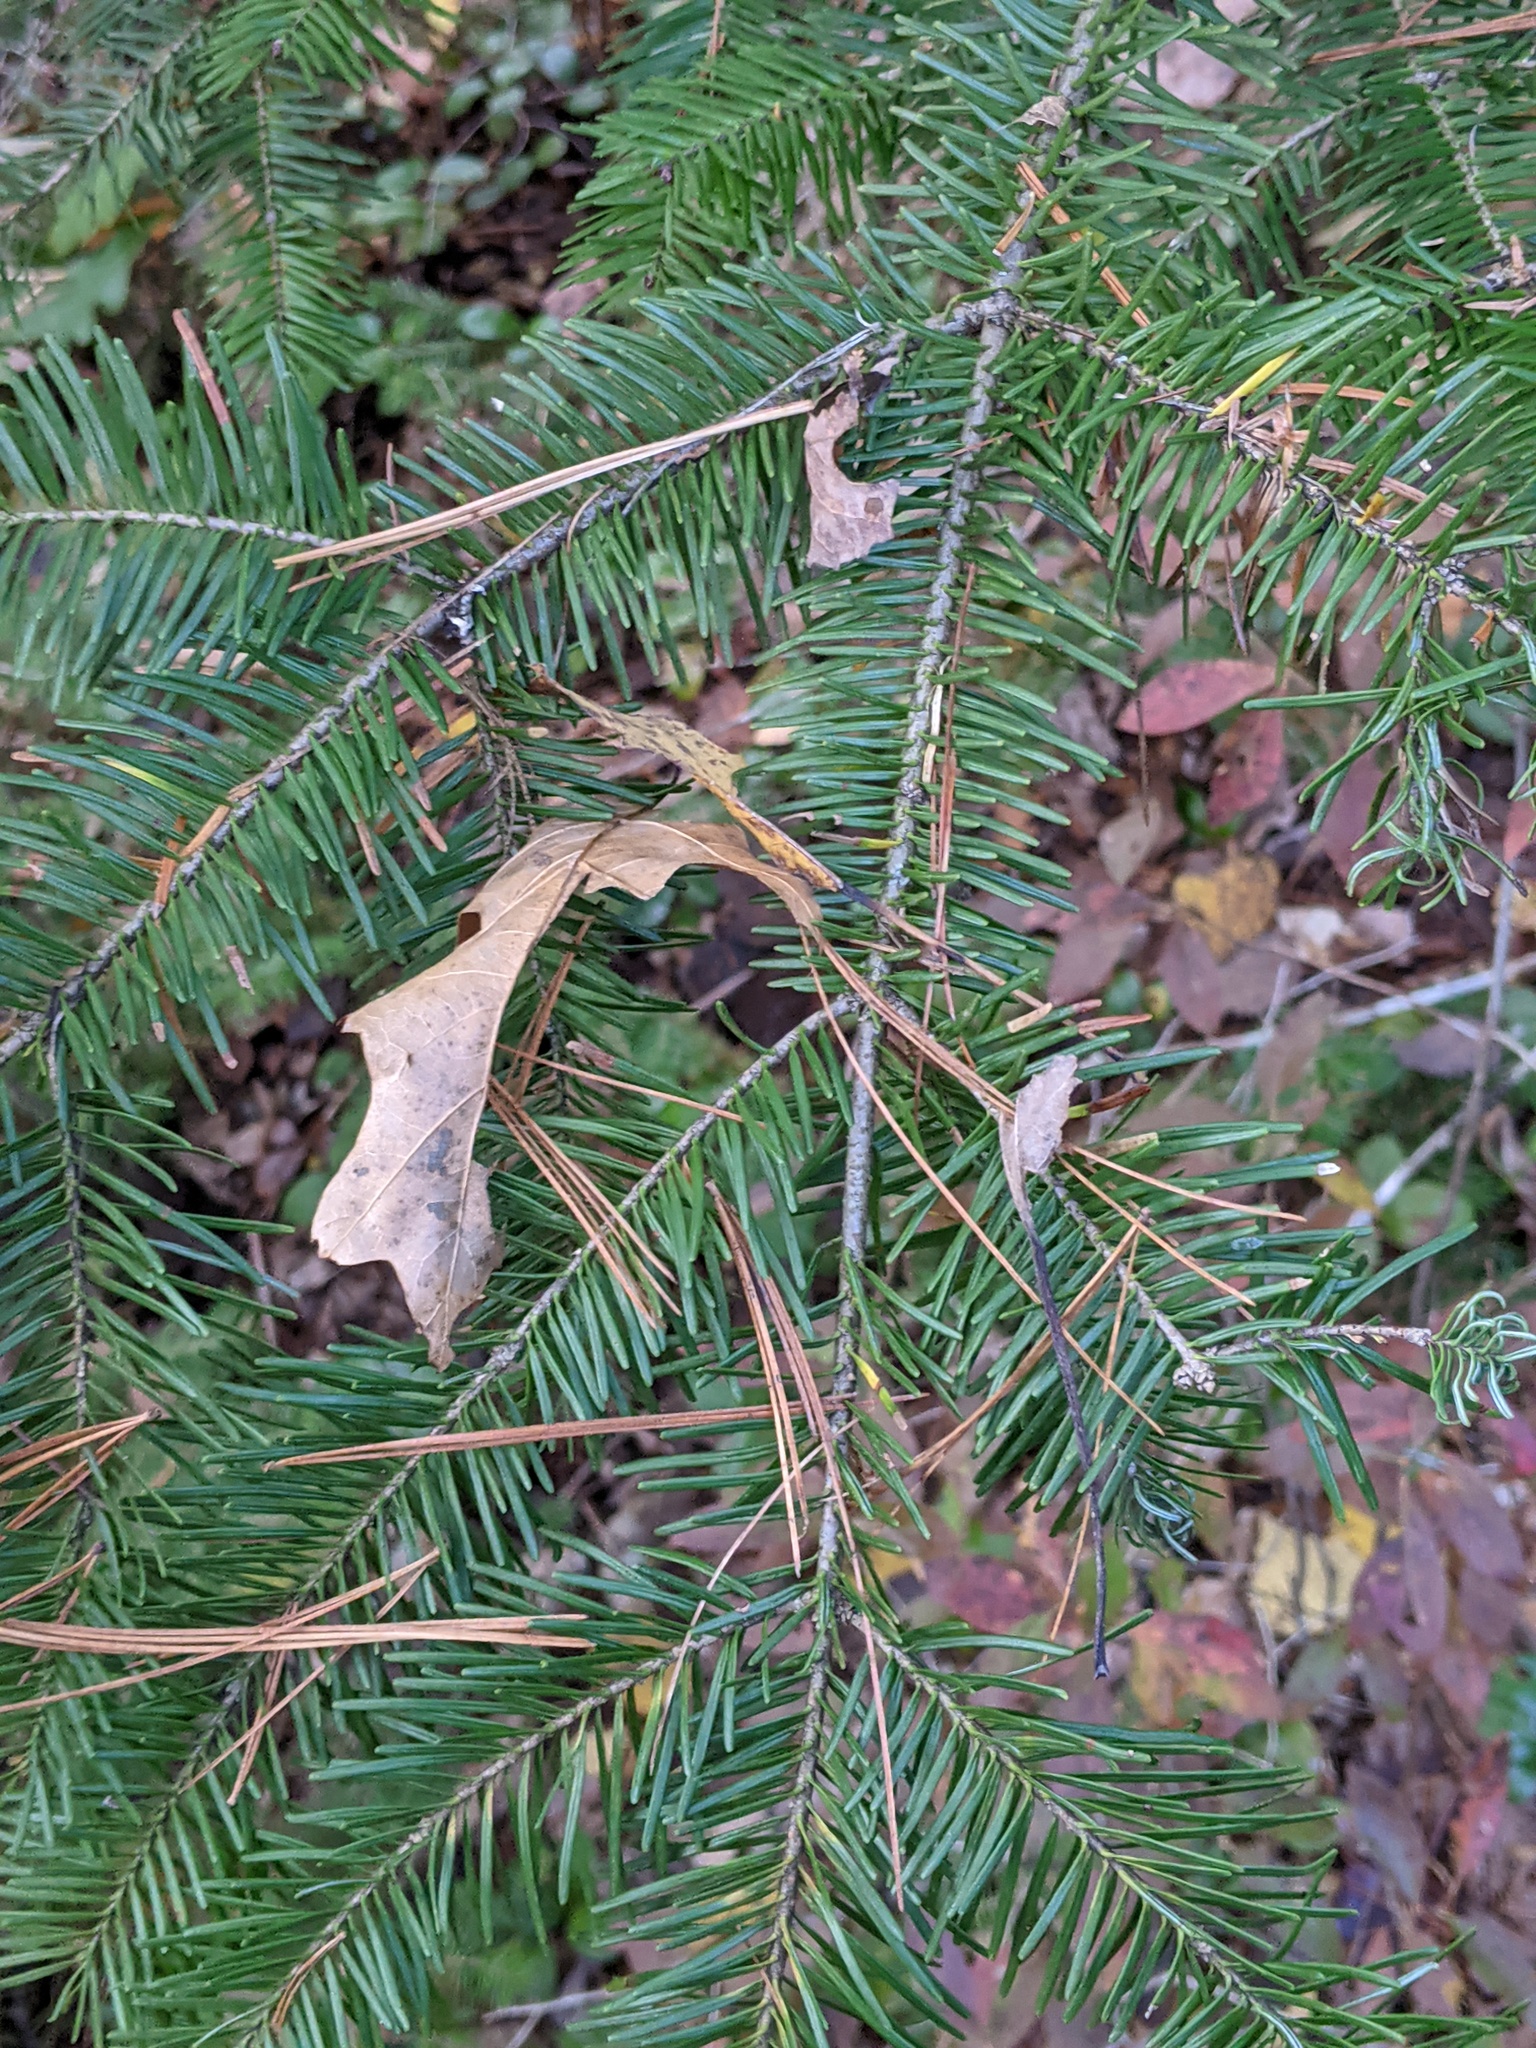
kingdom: Plantae
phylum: Tracheophyta
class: Pinopsida
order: Pinales
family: Pinaceae
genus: Abies
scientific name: Abies balsamea
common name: Balsam fir
